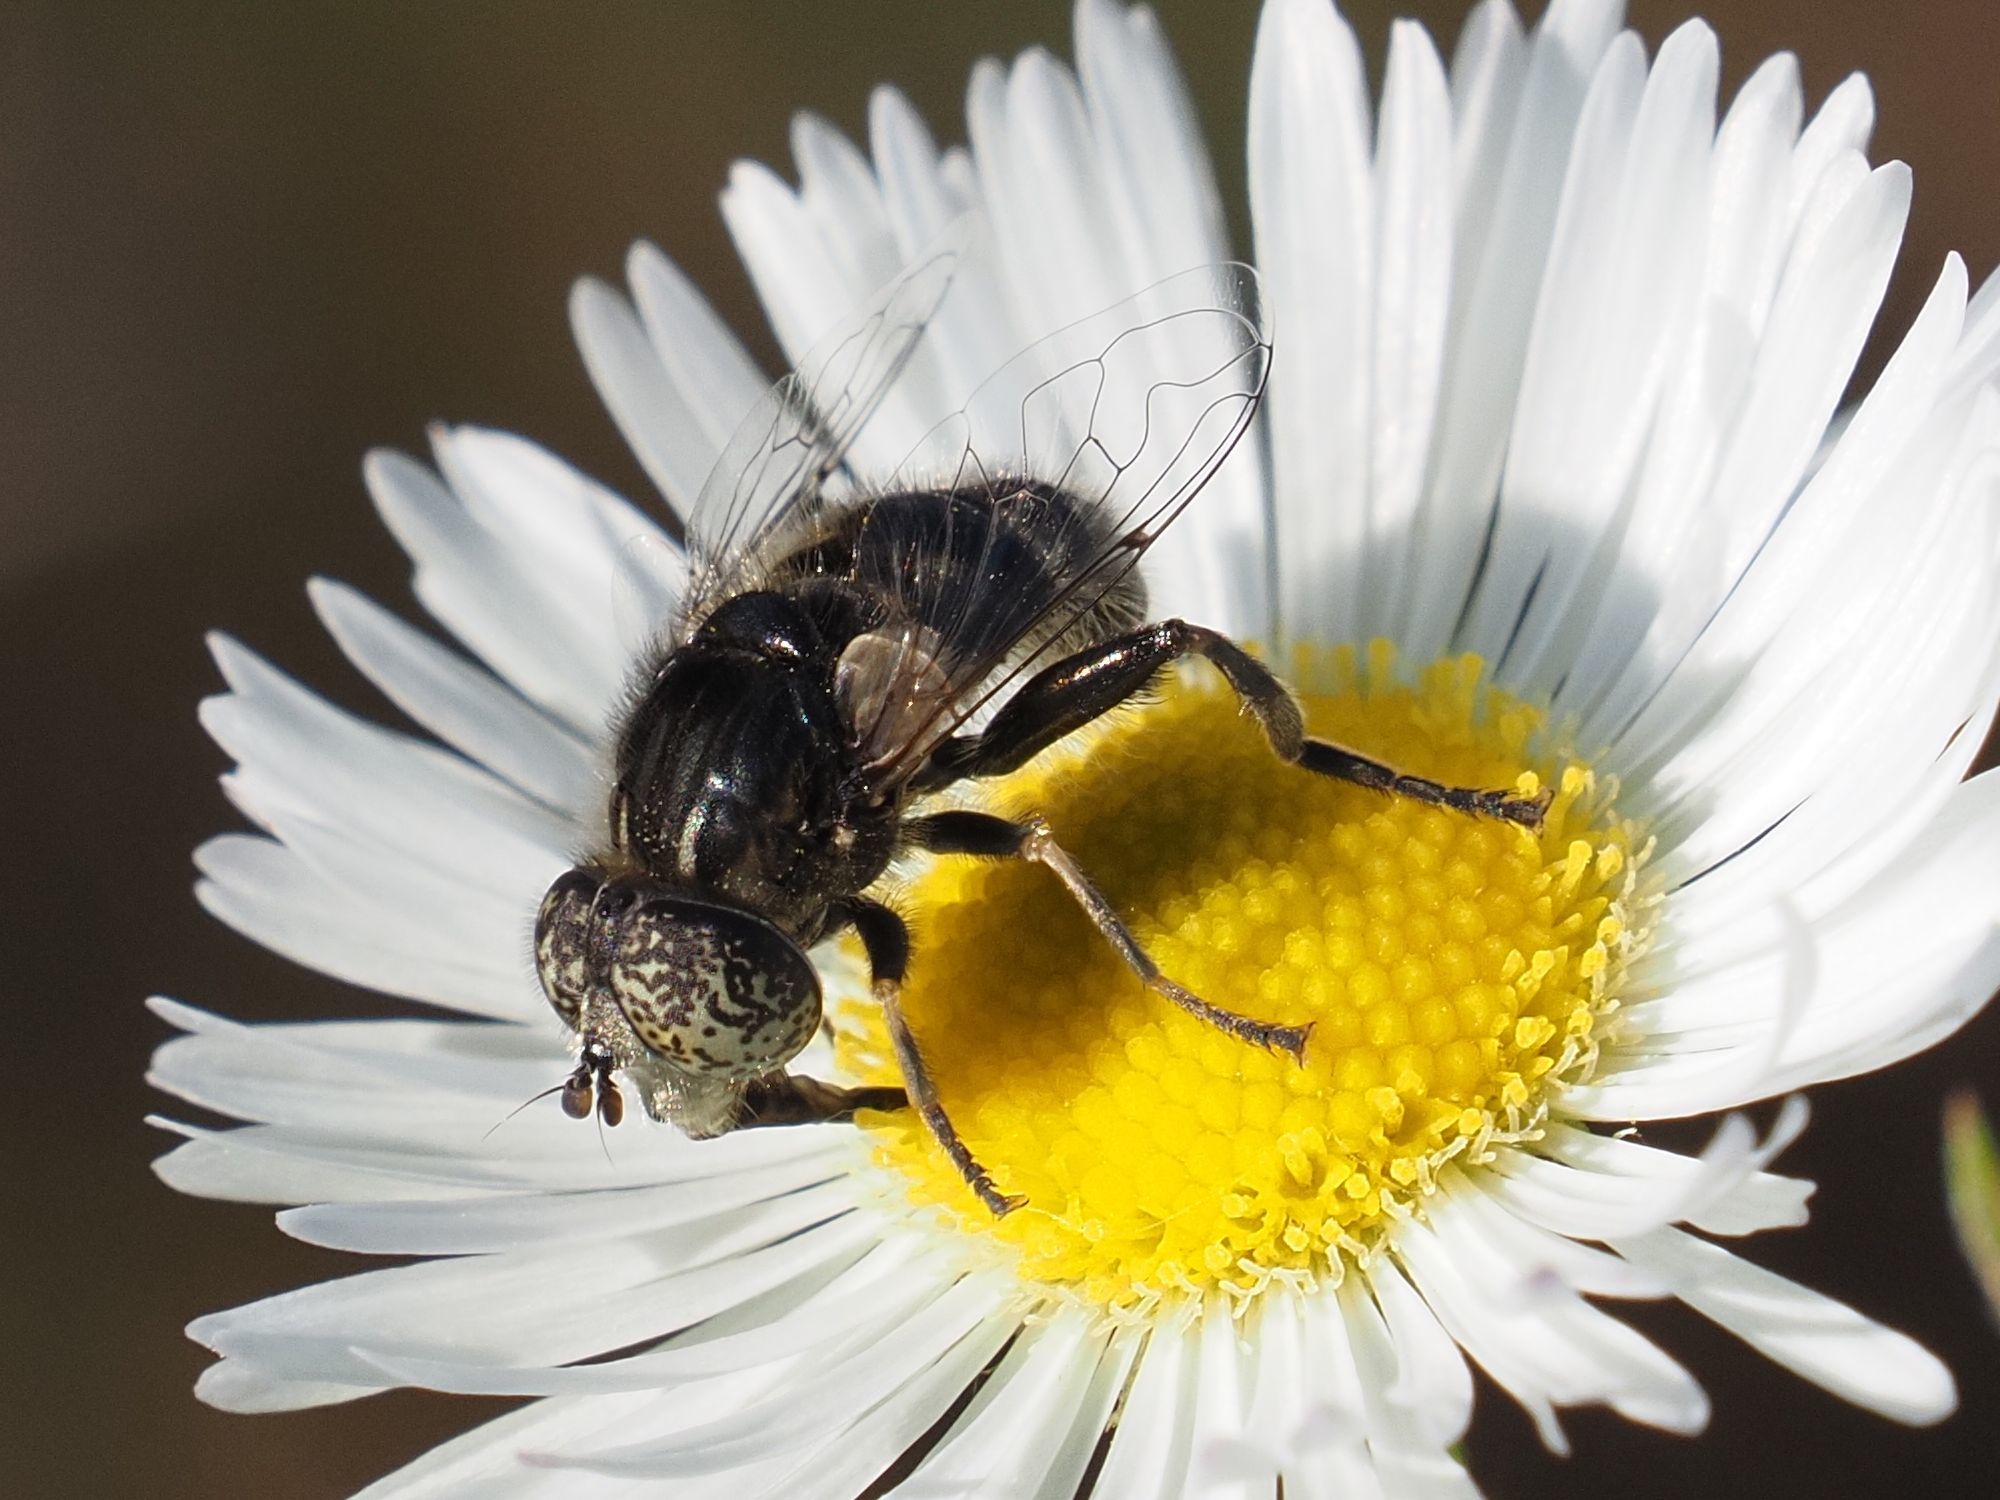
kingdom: Animalia
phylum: Arthropoda
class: Insecta
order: Diptera
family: Syrphidae
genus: Eristalinus
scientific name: Eristalinus sepulchralis
